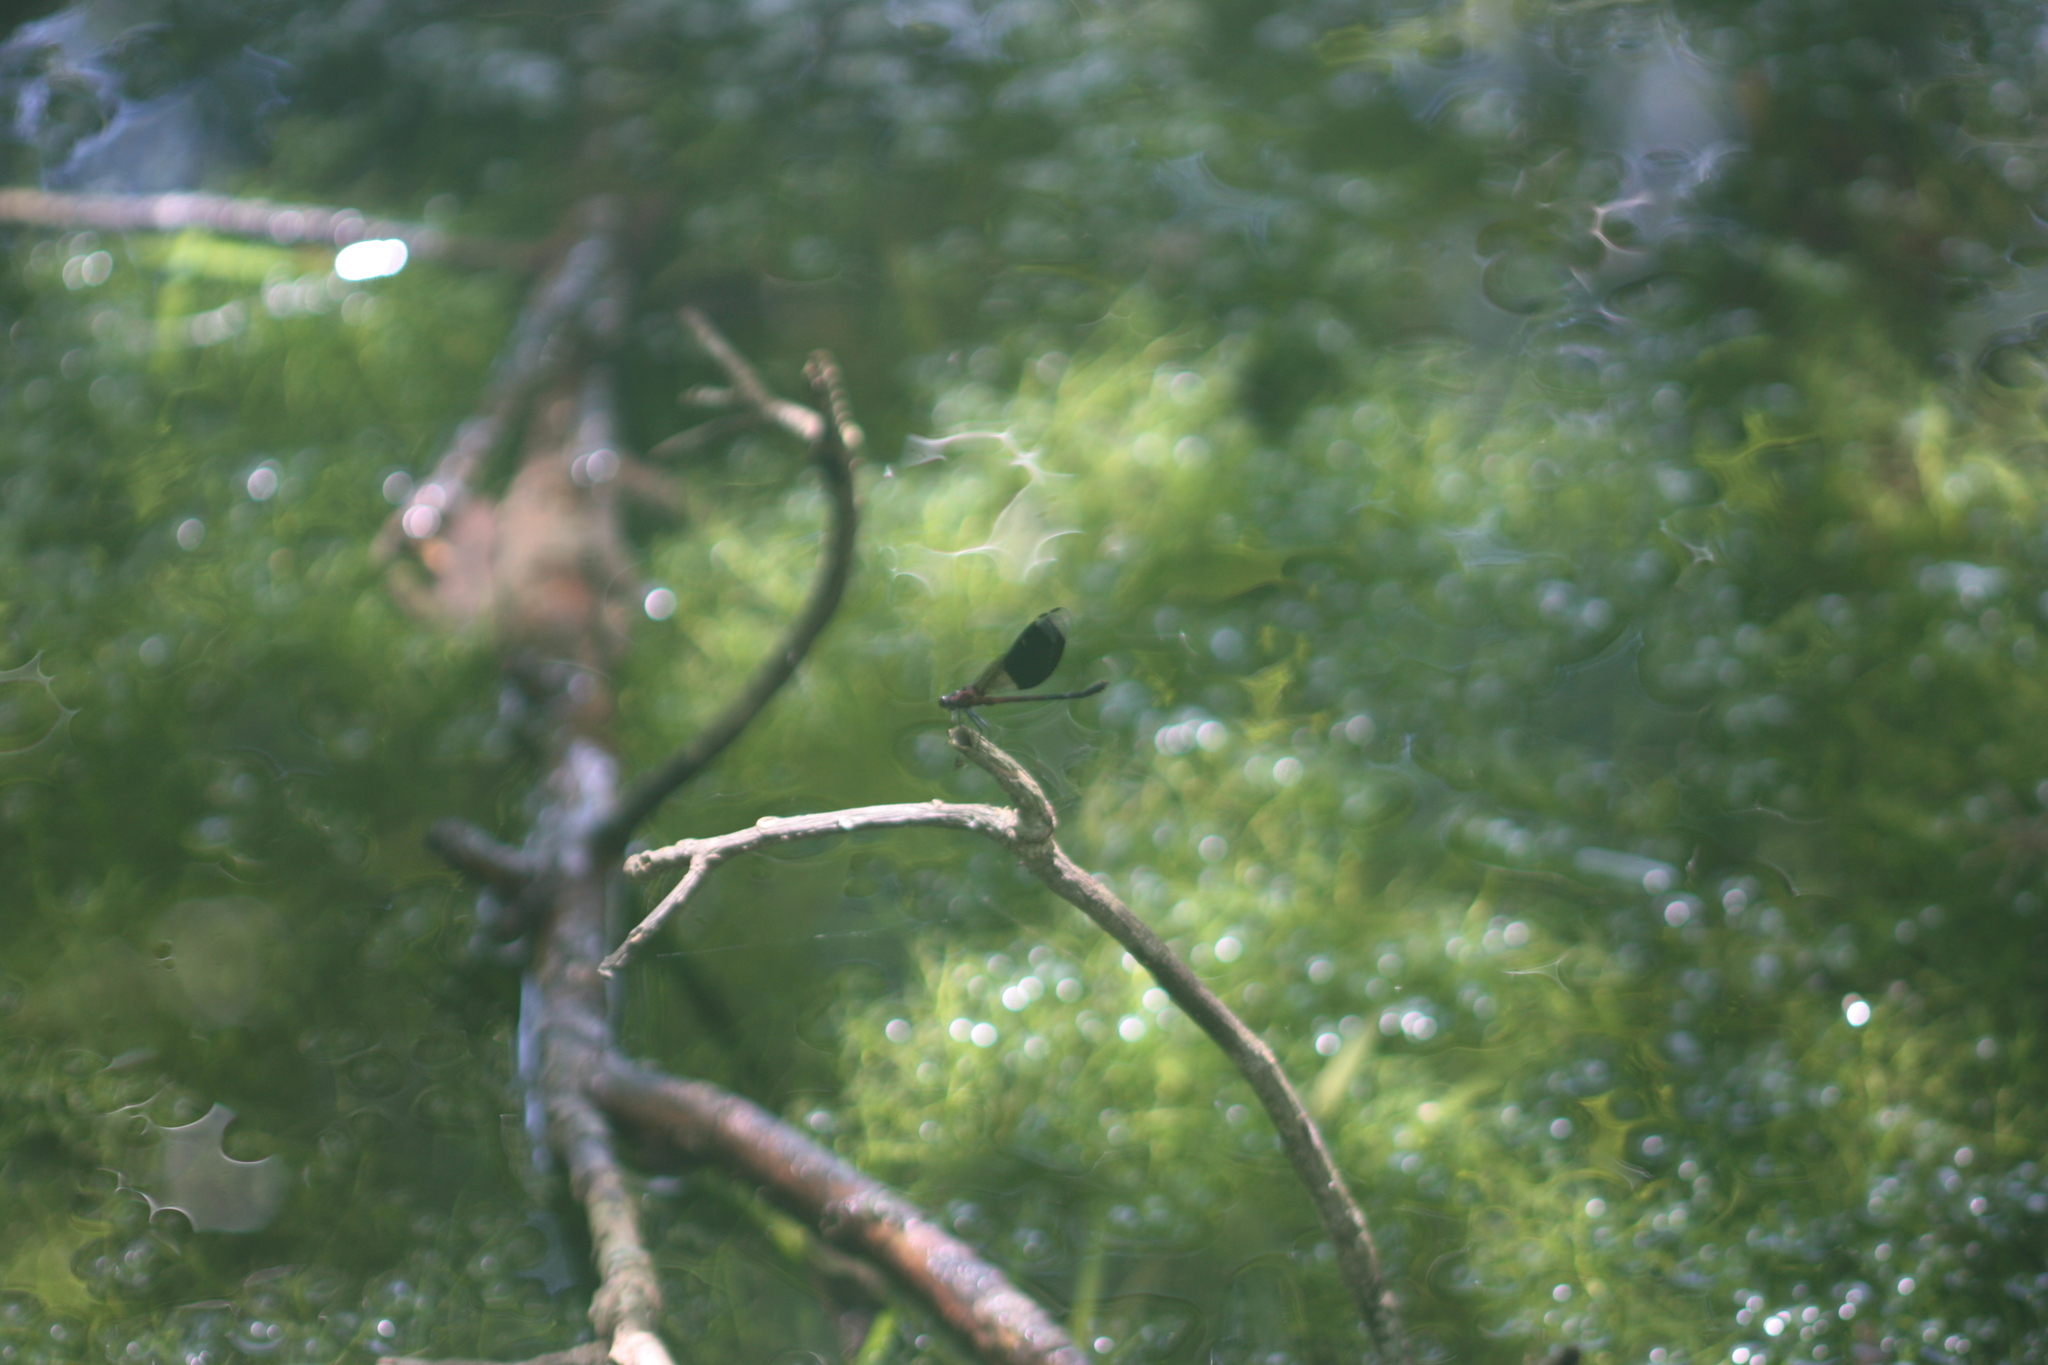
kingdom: Animalia
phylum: Arthropoda
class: Insecta
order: Odonata
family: Euphaeidae
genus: Euphaea
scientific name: Euphaea formosa
